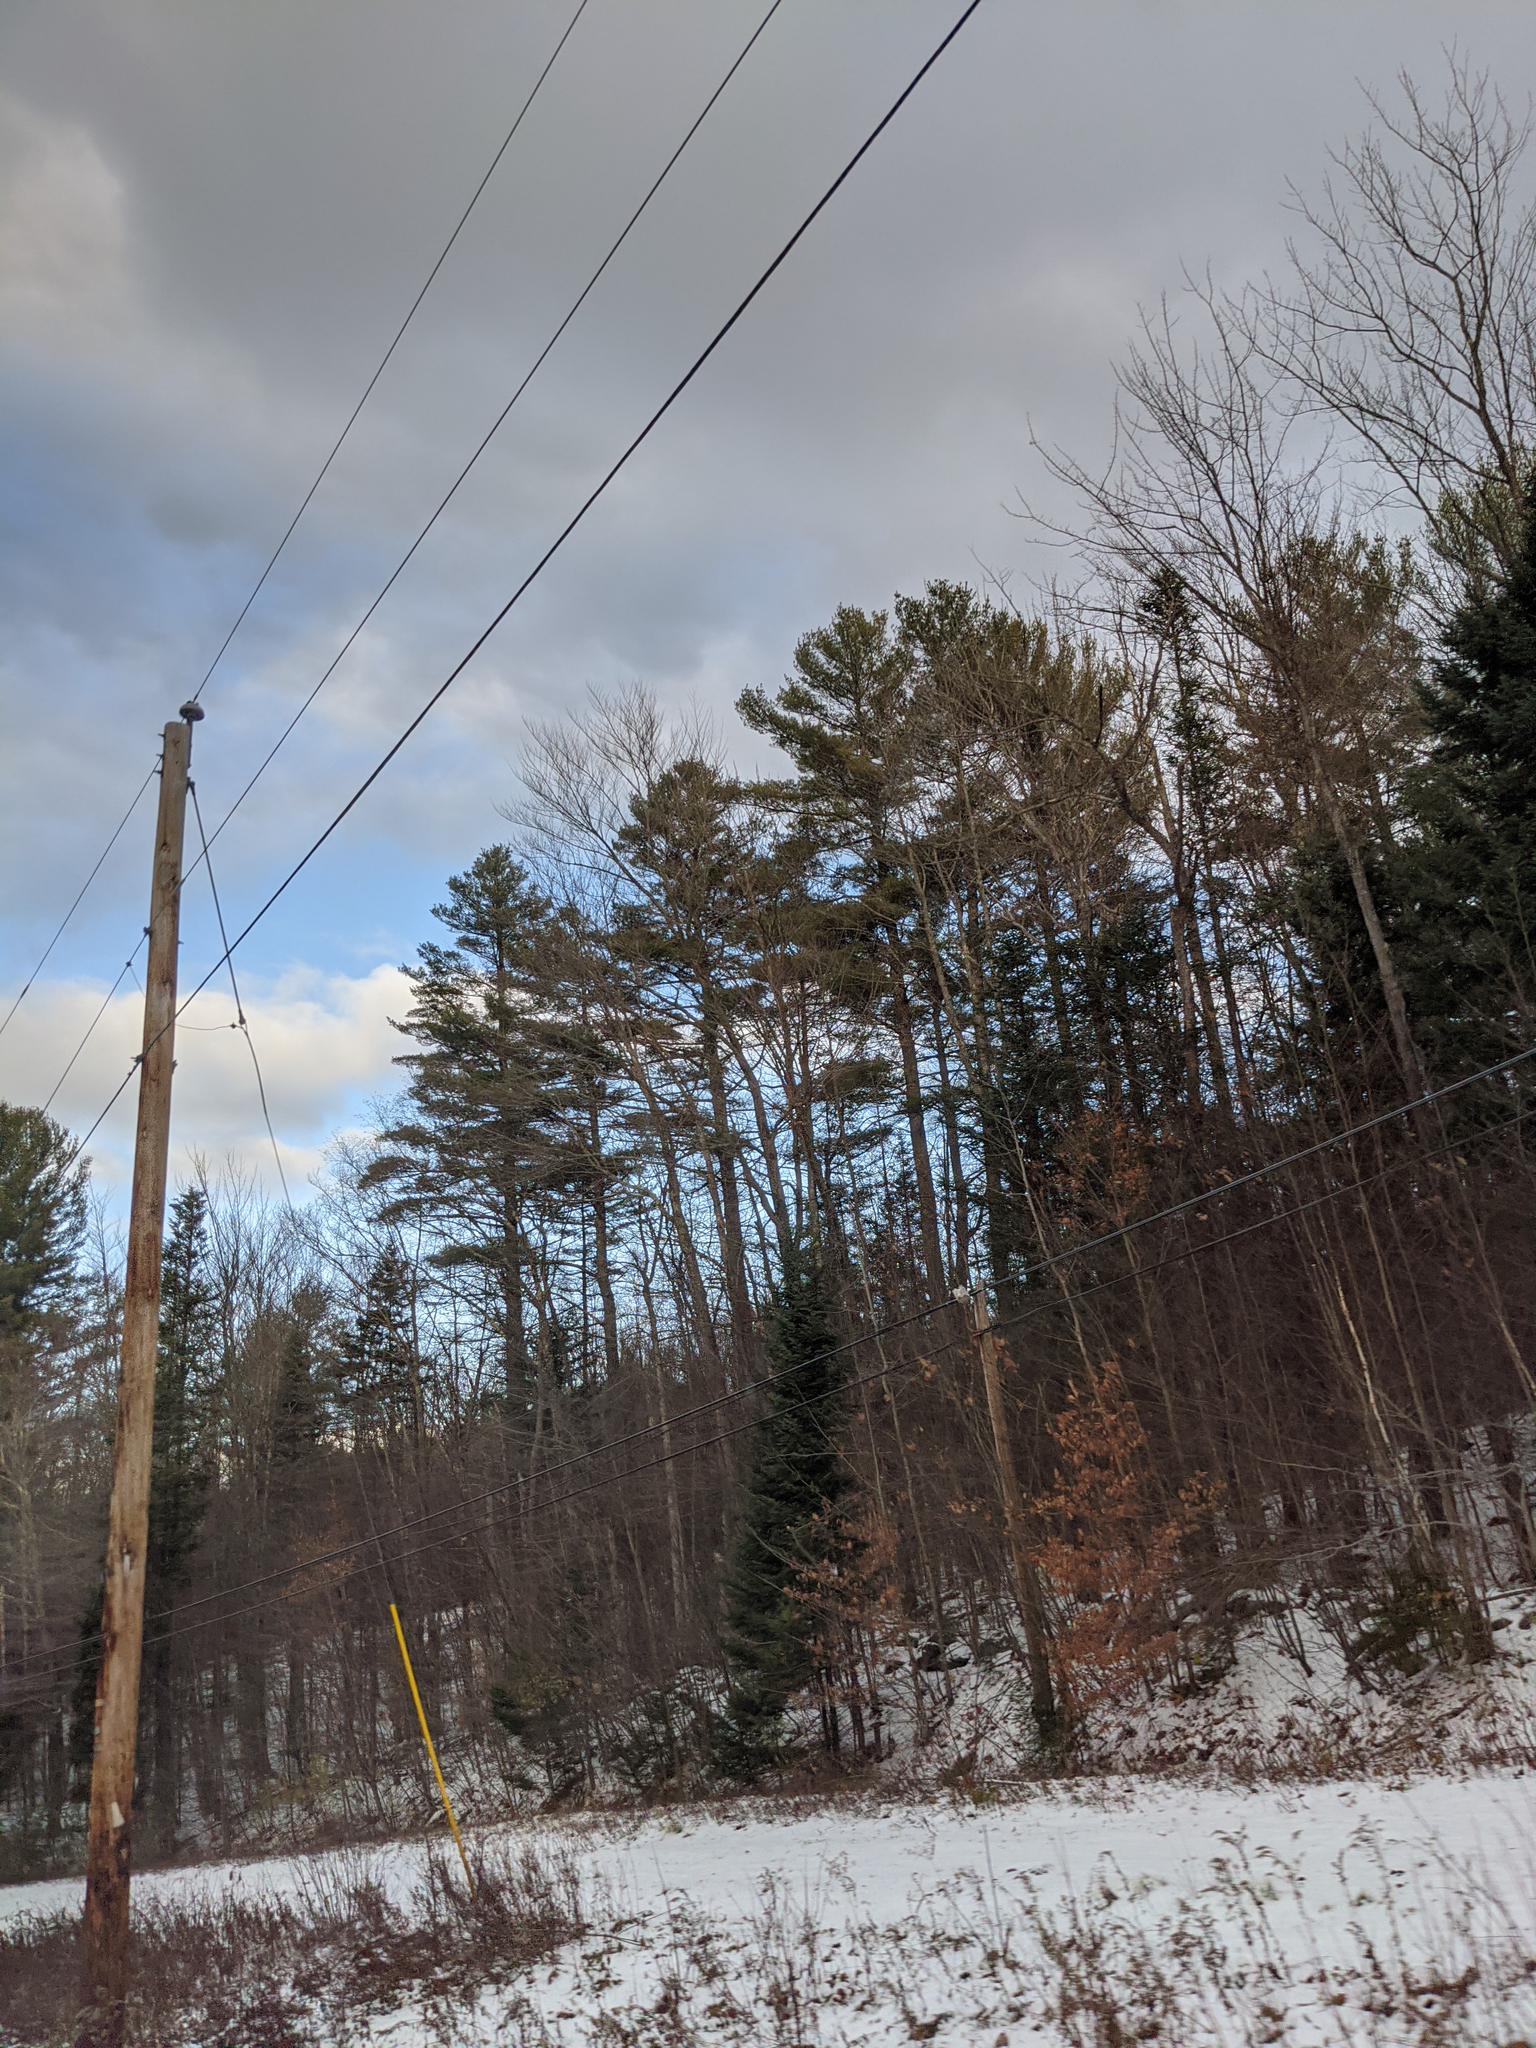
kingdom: Plantae
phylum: Tracheophyta
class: Pinopsida
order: Pinales
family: Pinaceae
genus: Pinus
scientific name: Pinus strobus
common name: Weymouth pine
